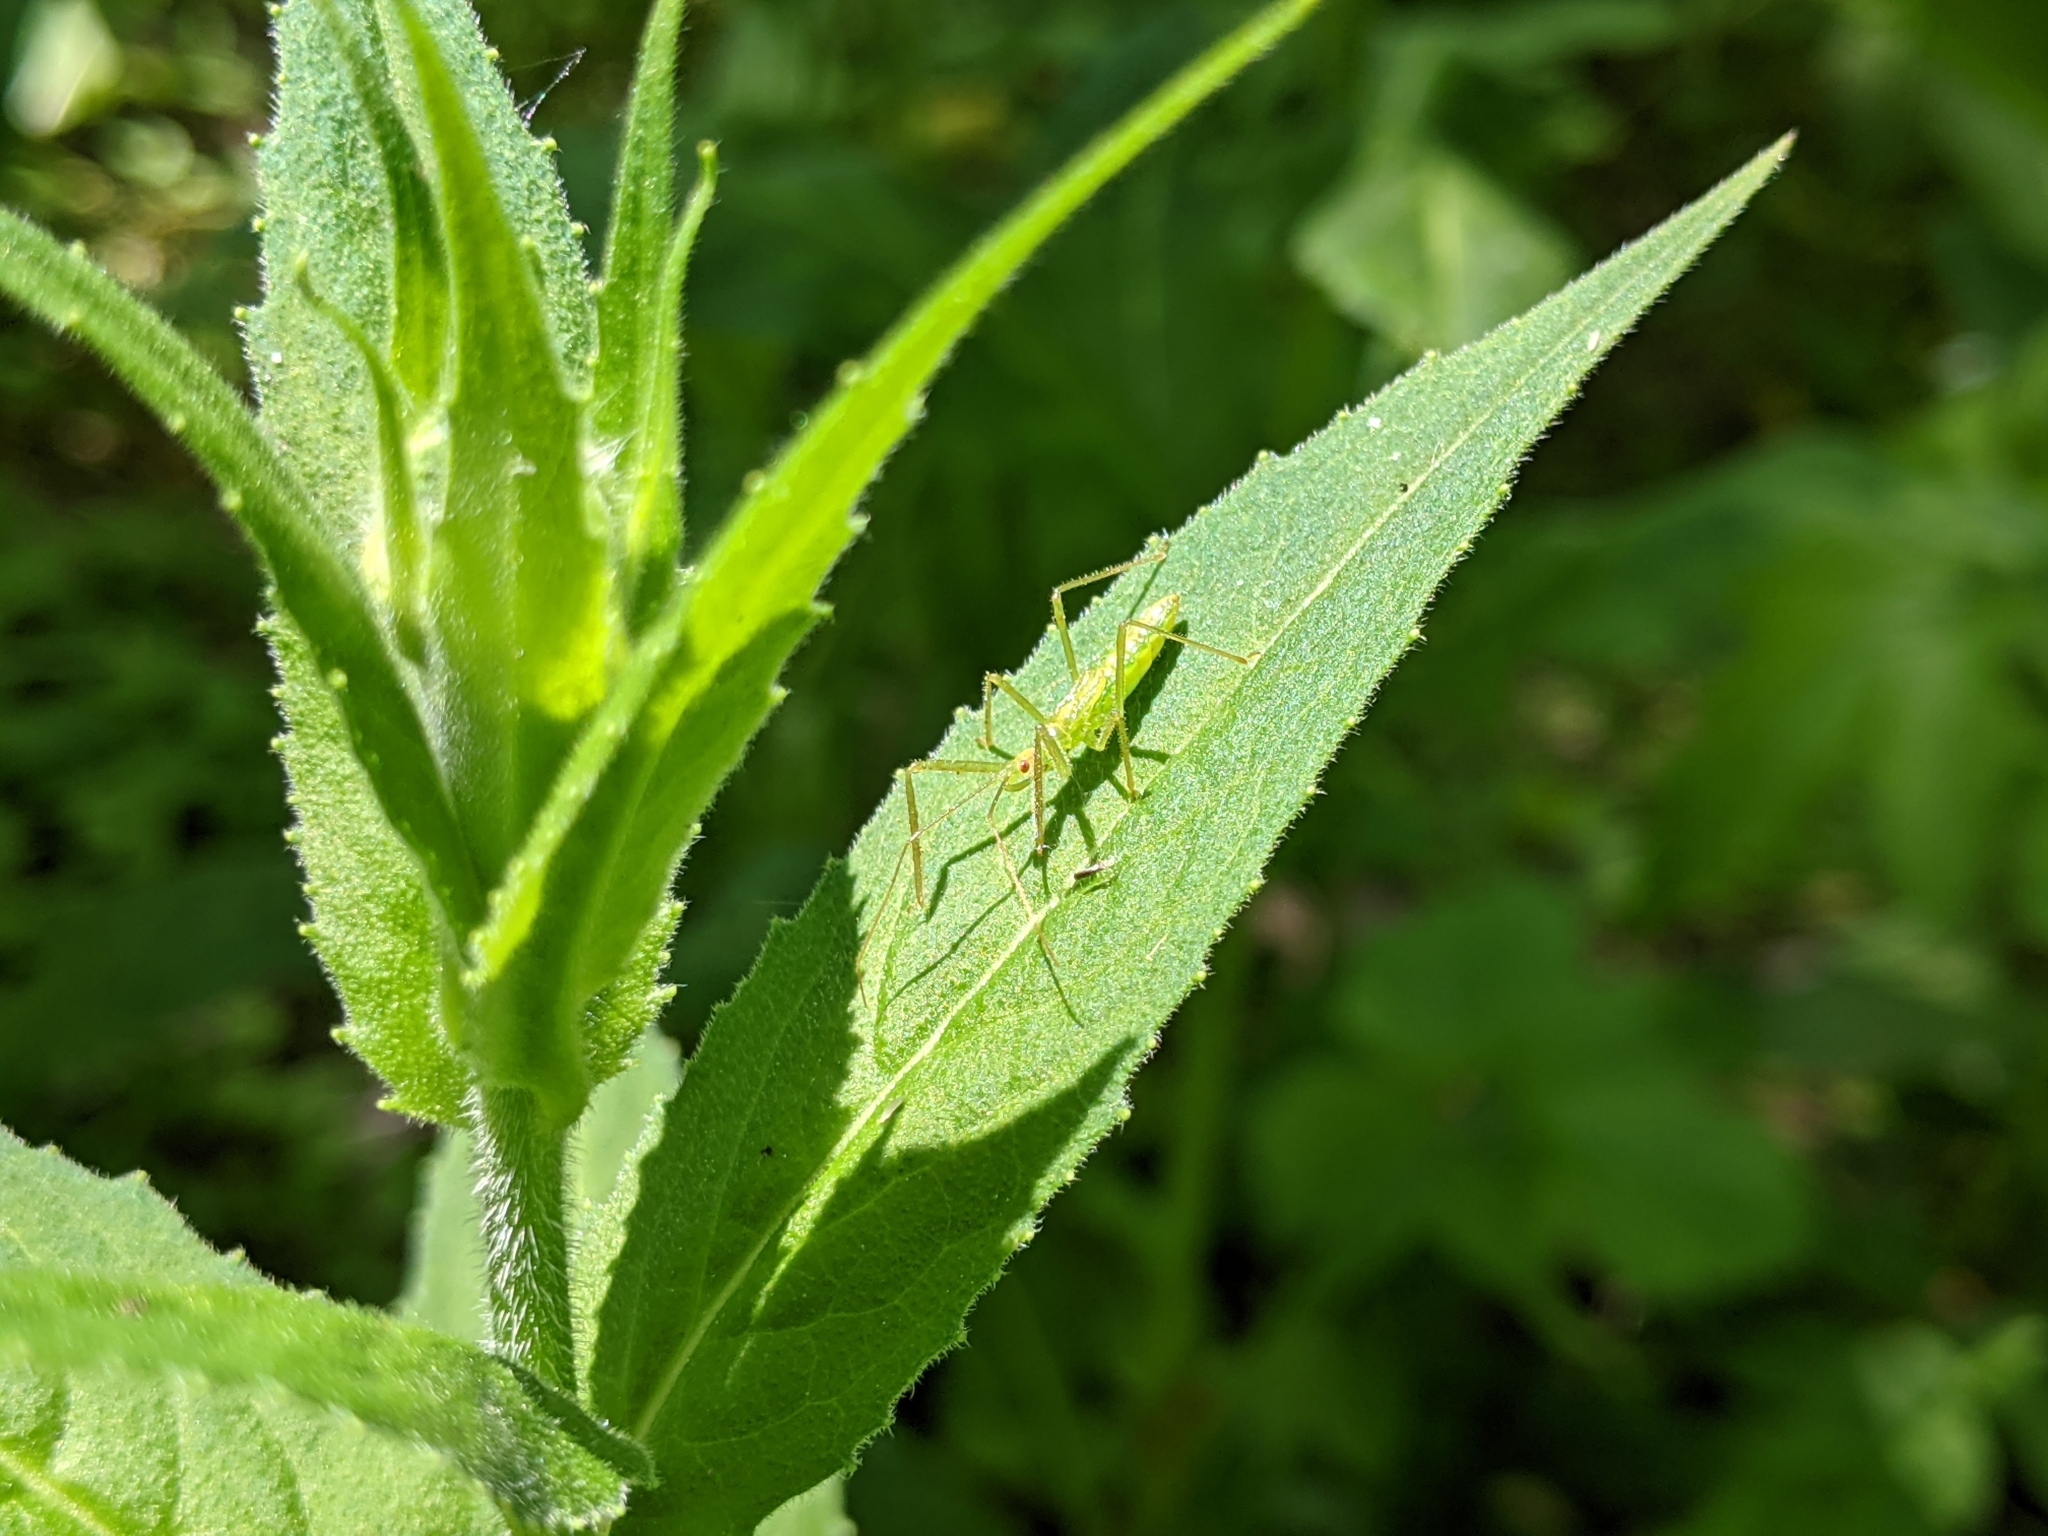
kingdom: Animalia
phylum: Arthropoda
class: Insecta
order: Hemiptera
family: Reduviidae
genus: Zelus
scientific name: Zelus luridus
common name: Pale green assassin bug
